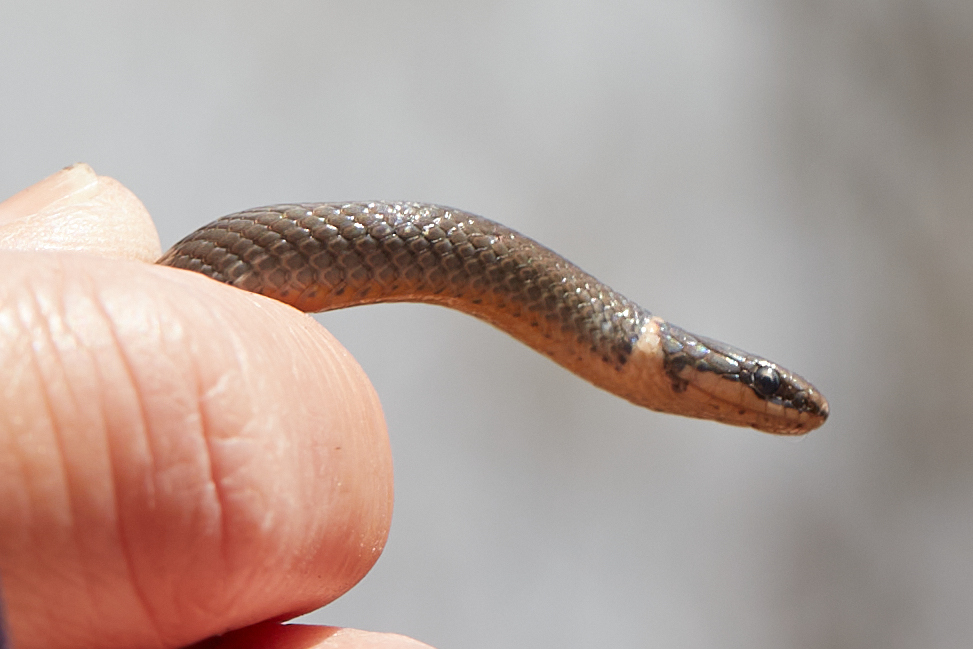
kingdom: Animalia
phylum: Chordata
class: Squamata
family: Colubridae
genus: Diadophis
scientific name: Diadophis punctatus
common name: Ringneck snake
